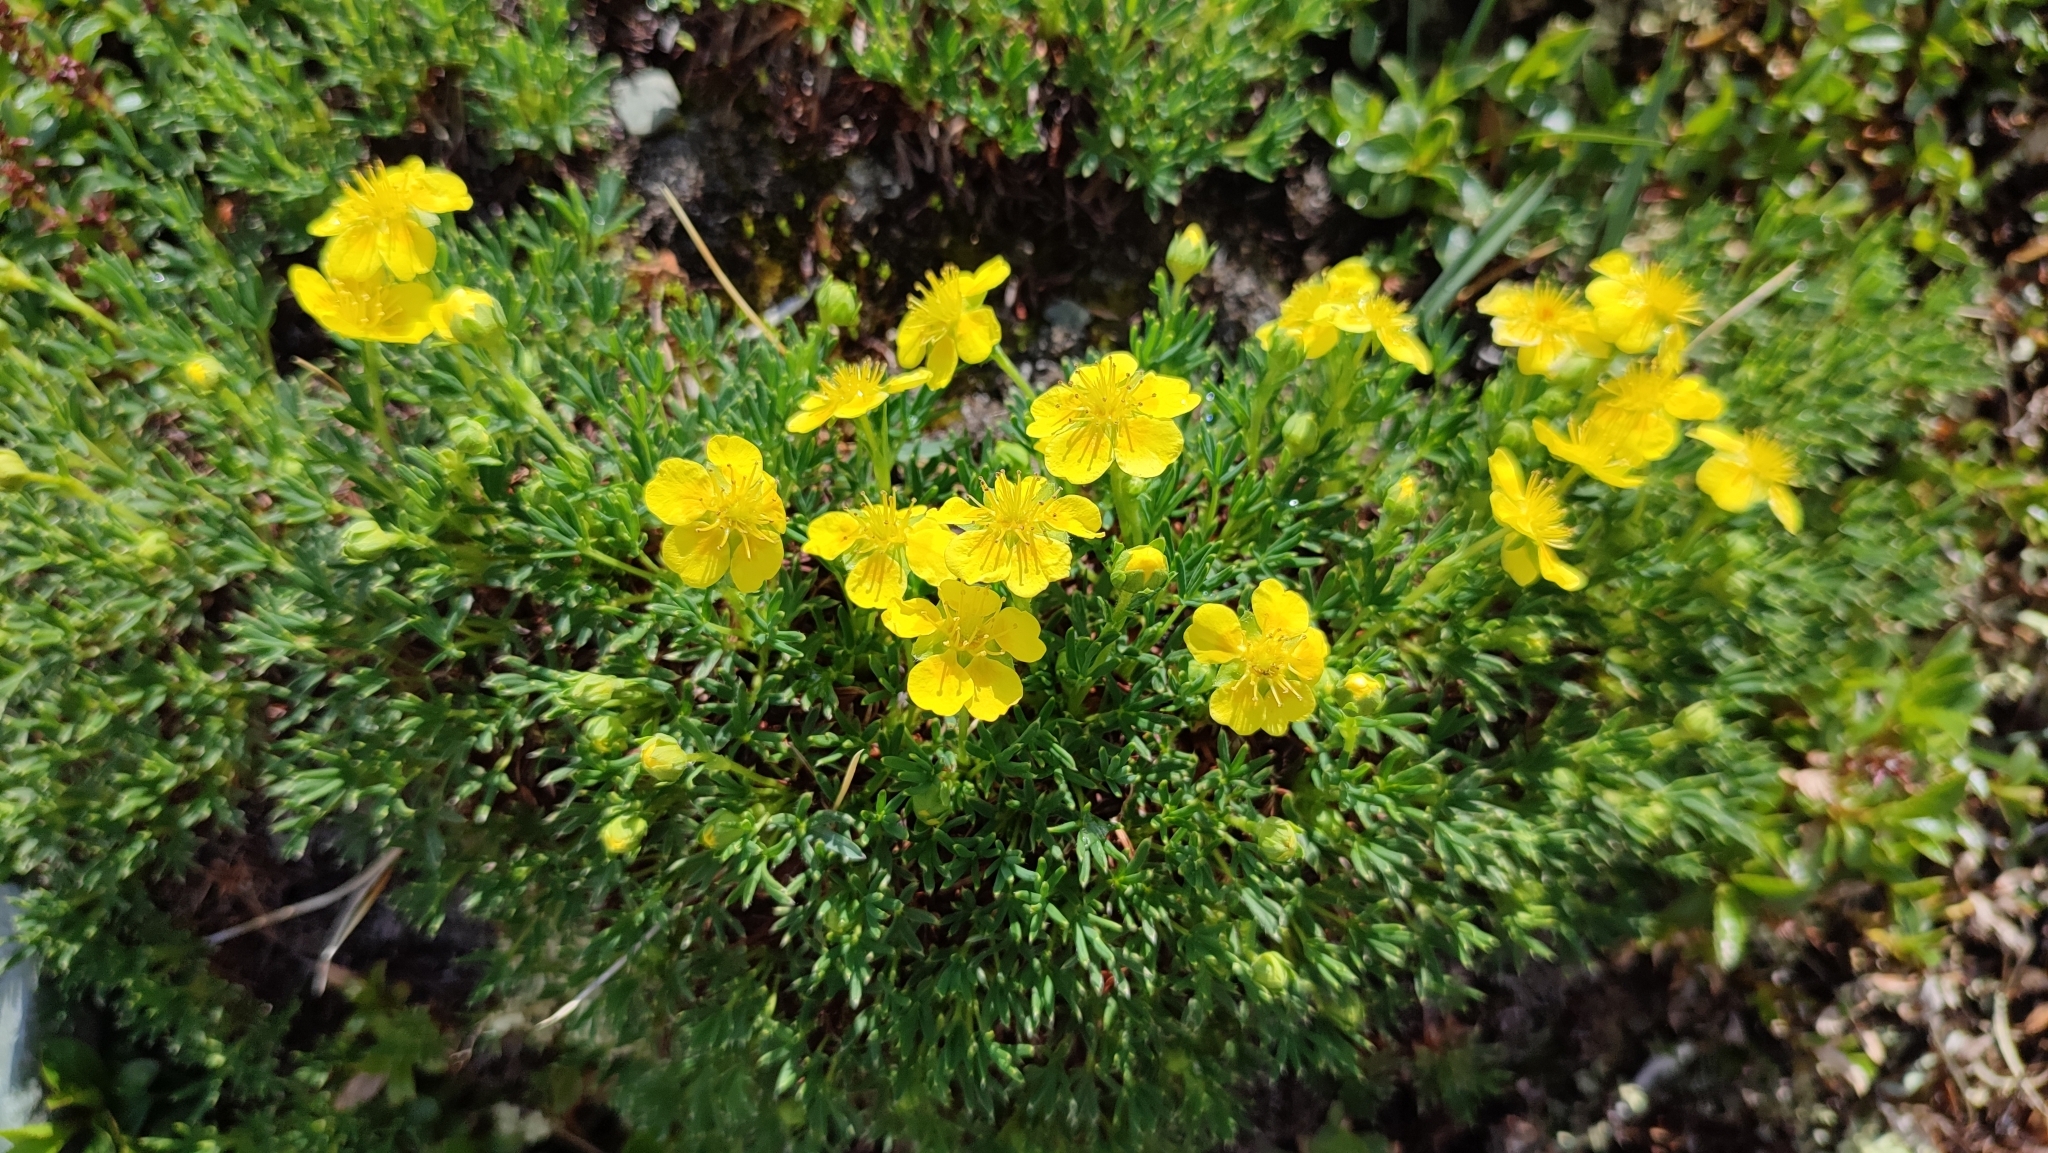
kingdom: Plantae
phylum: Tracheophyta
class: Magnoliopsida
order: Rosales
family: Rosaceae
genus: Potentilla
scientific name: Potentilla biflora
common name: Two-flowered cinquefoil
